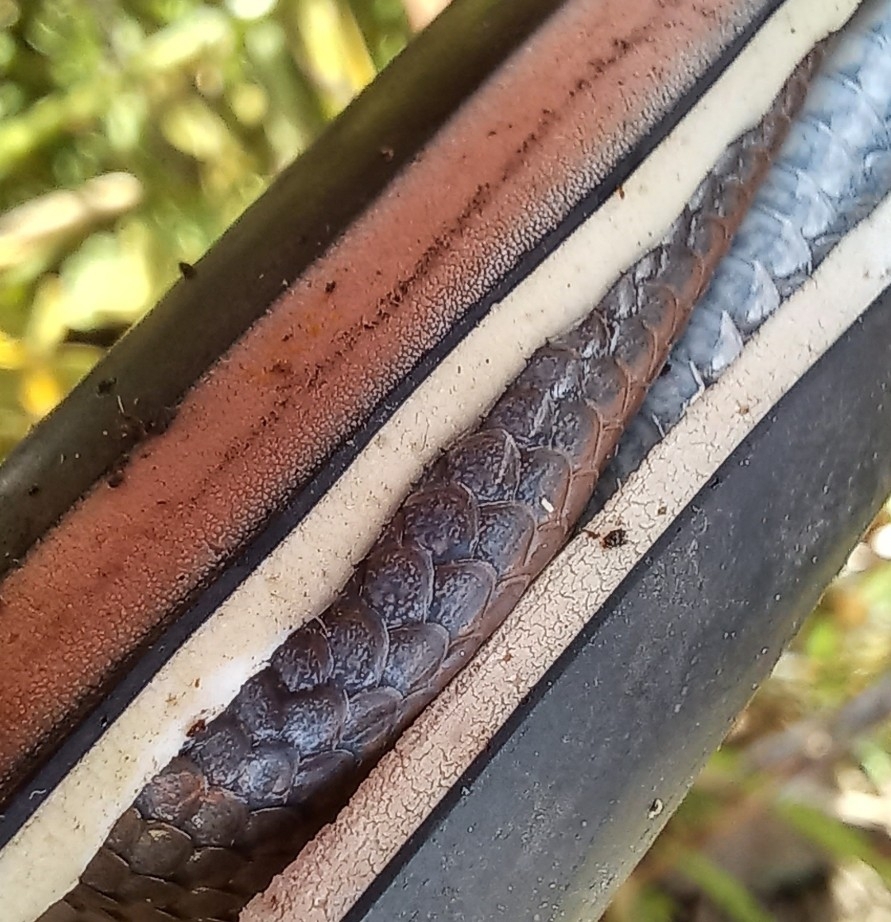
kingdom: Animalia
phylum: Chordata
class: Squamata
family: Pseudoxyrhophiidae
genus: Duberria
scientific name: Duberria lutrix
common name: Common slug eater
